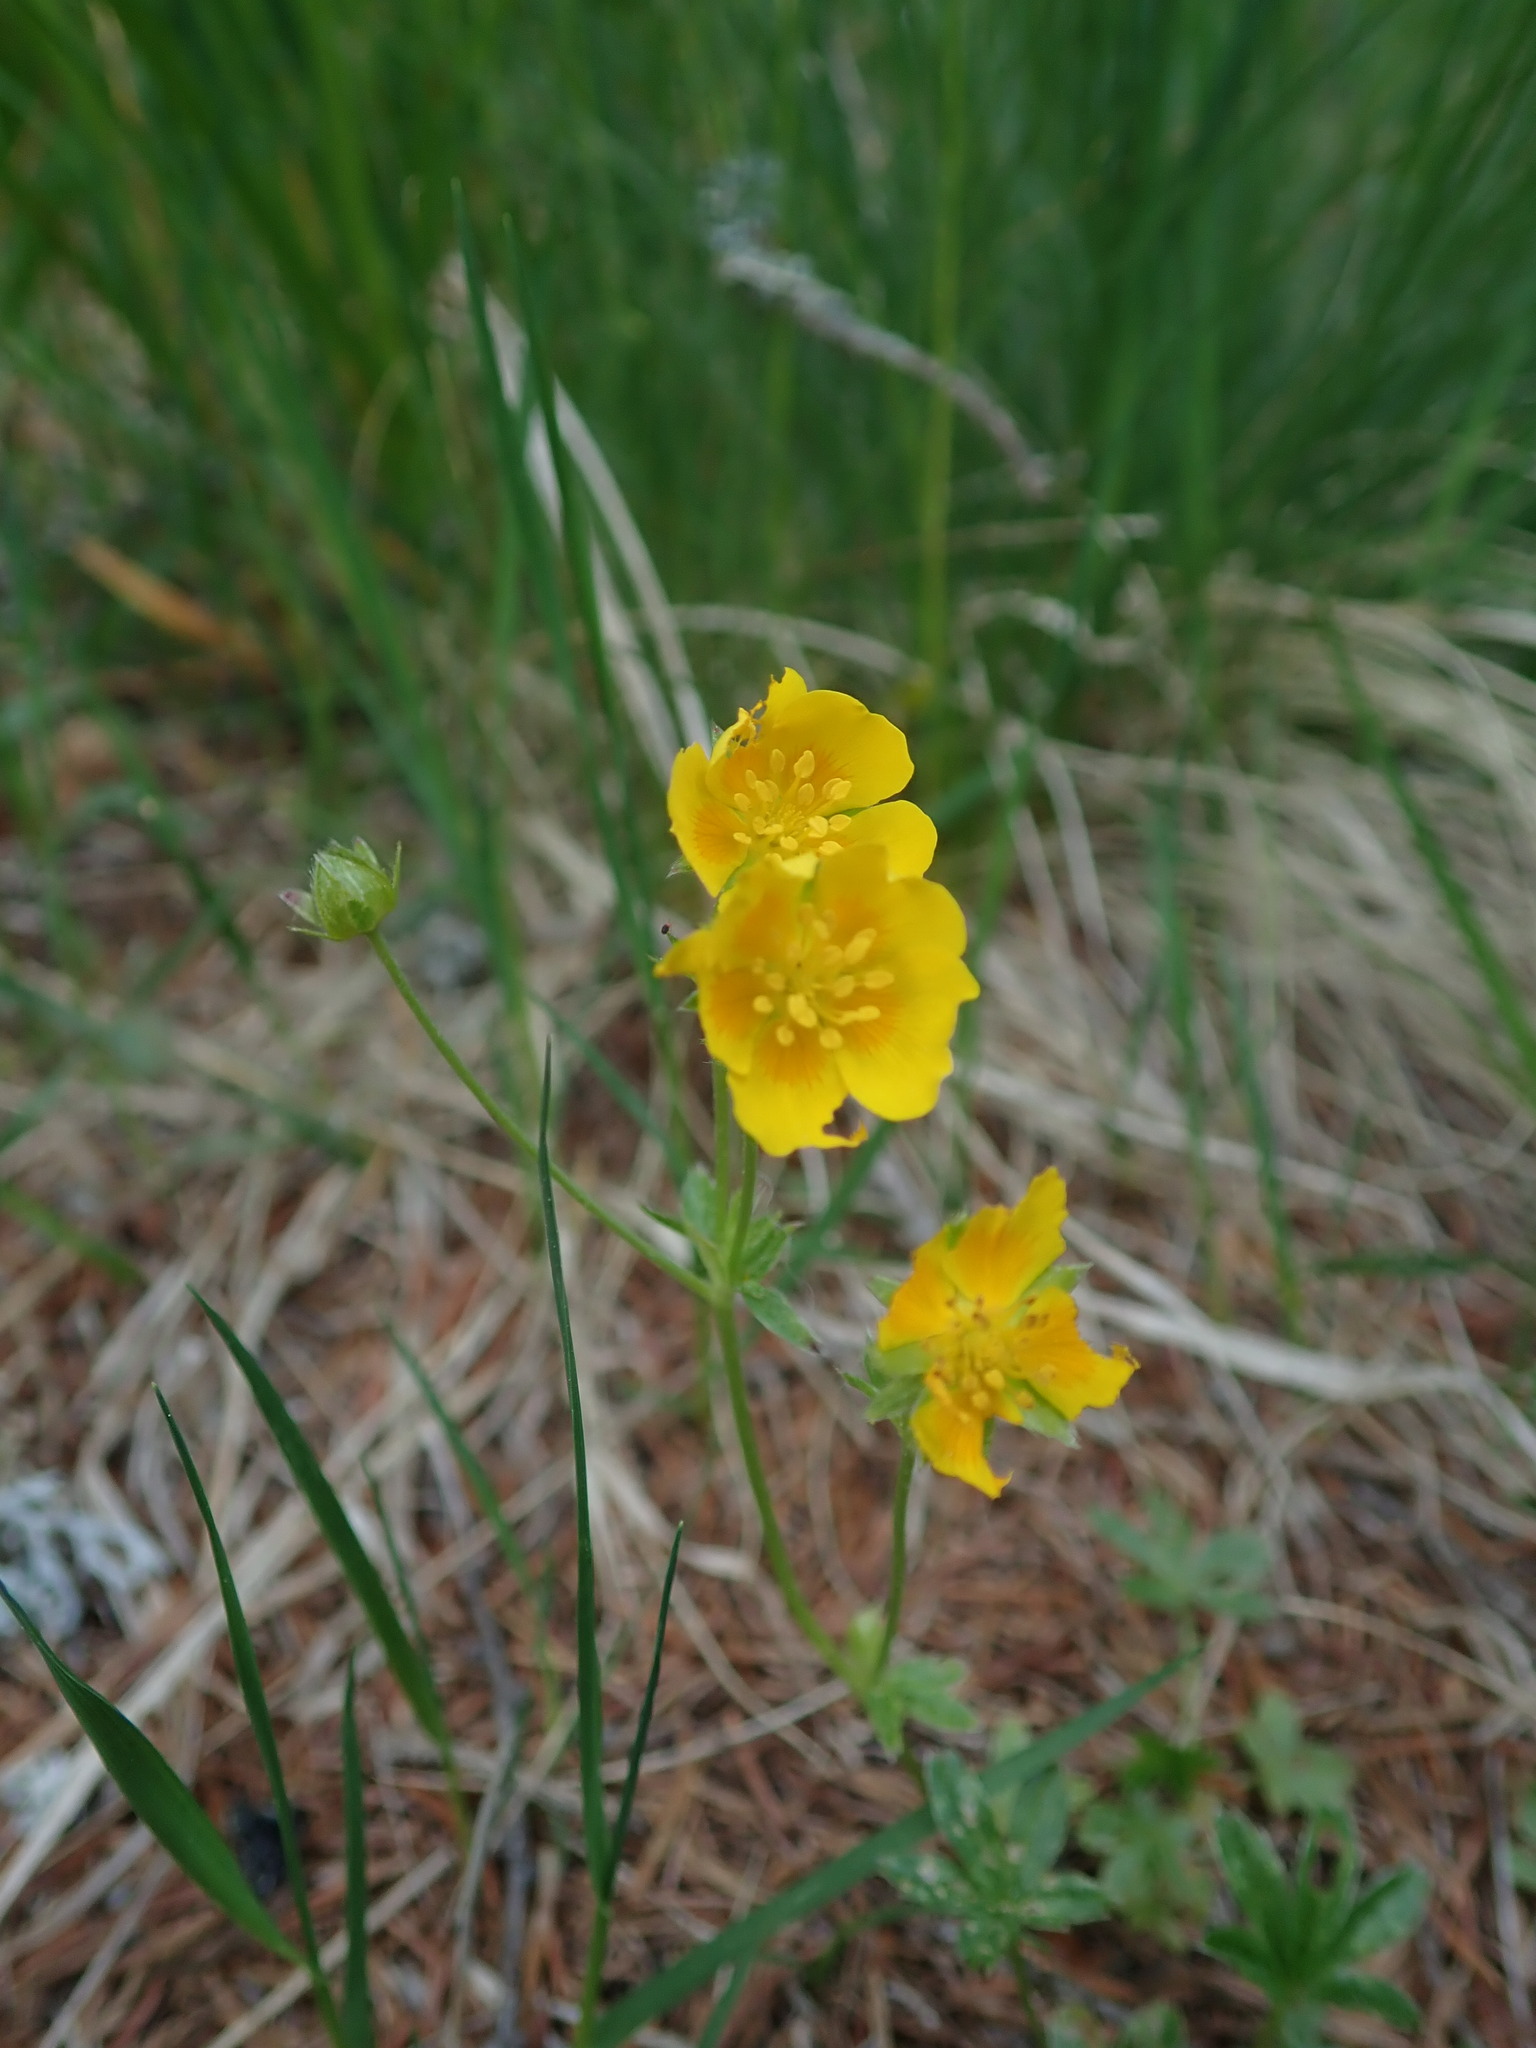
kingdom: Plantae
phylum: Tracheophyta
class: Magnoliopsida
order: Rosales
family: Rosaceae
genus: Potentilla
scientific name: Potentilla aurea
